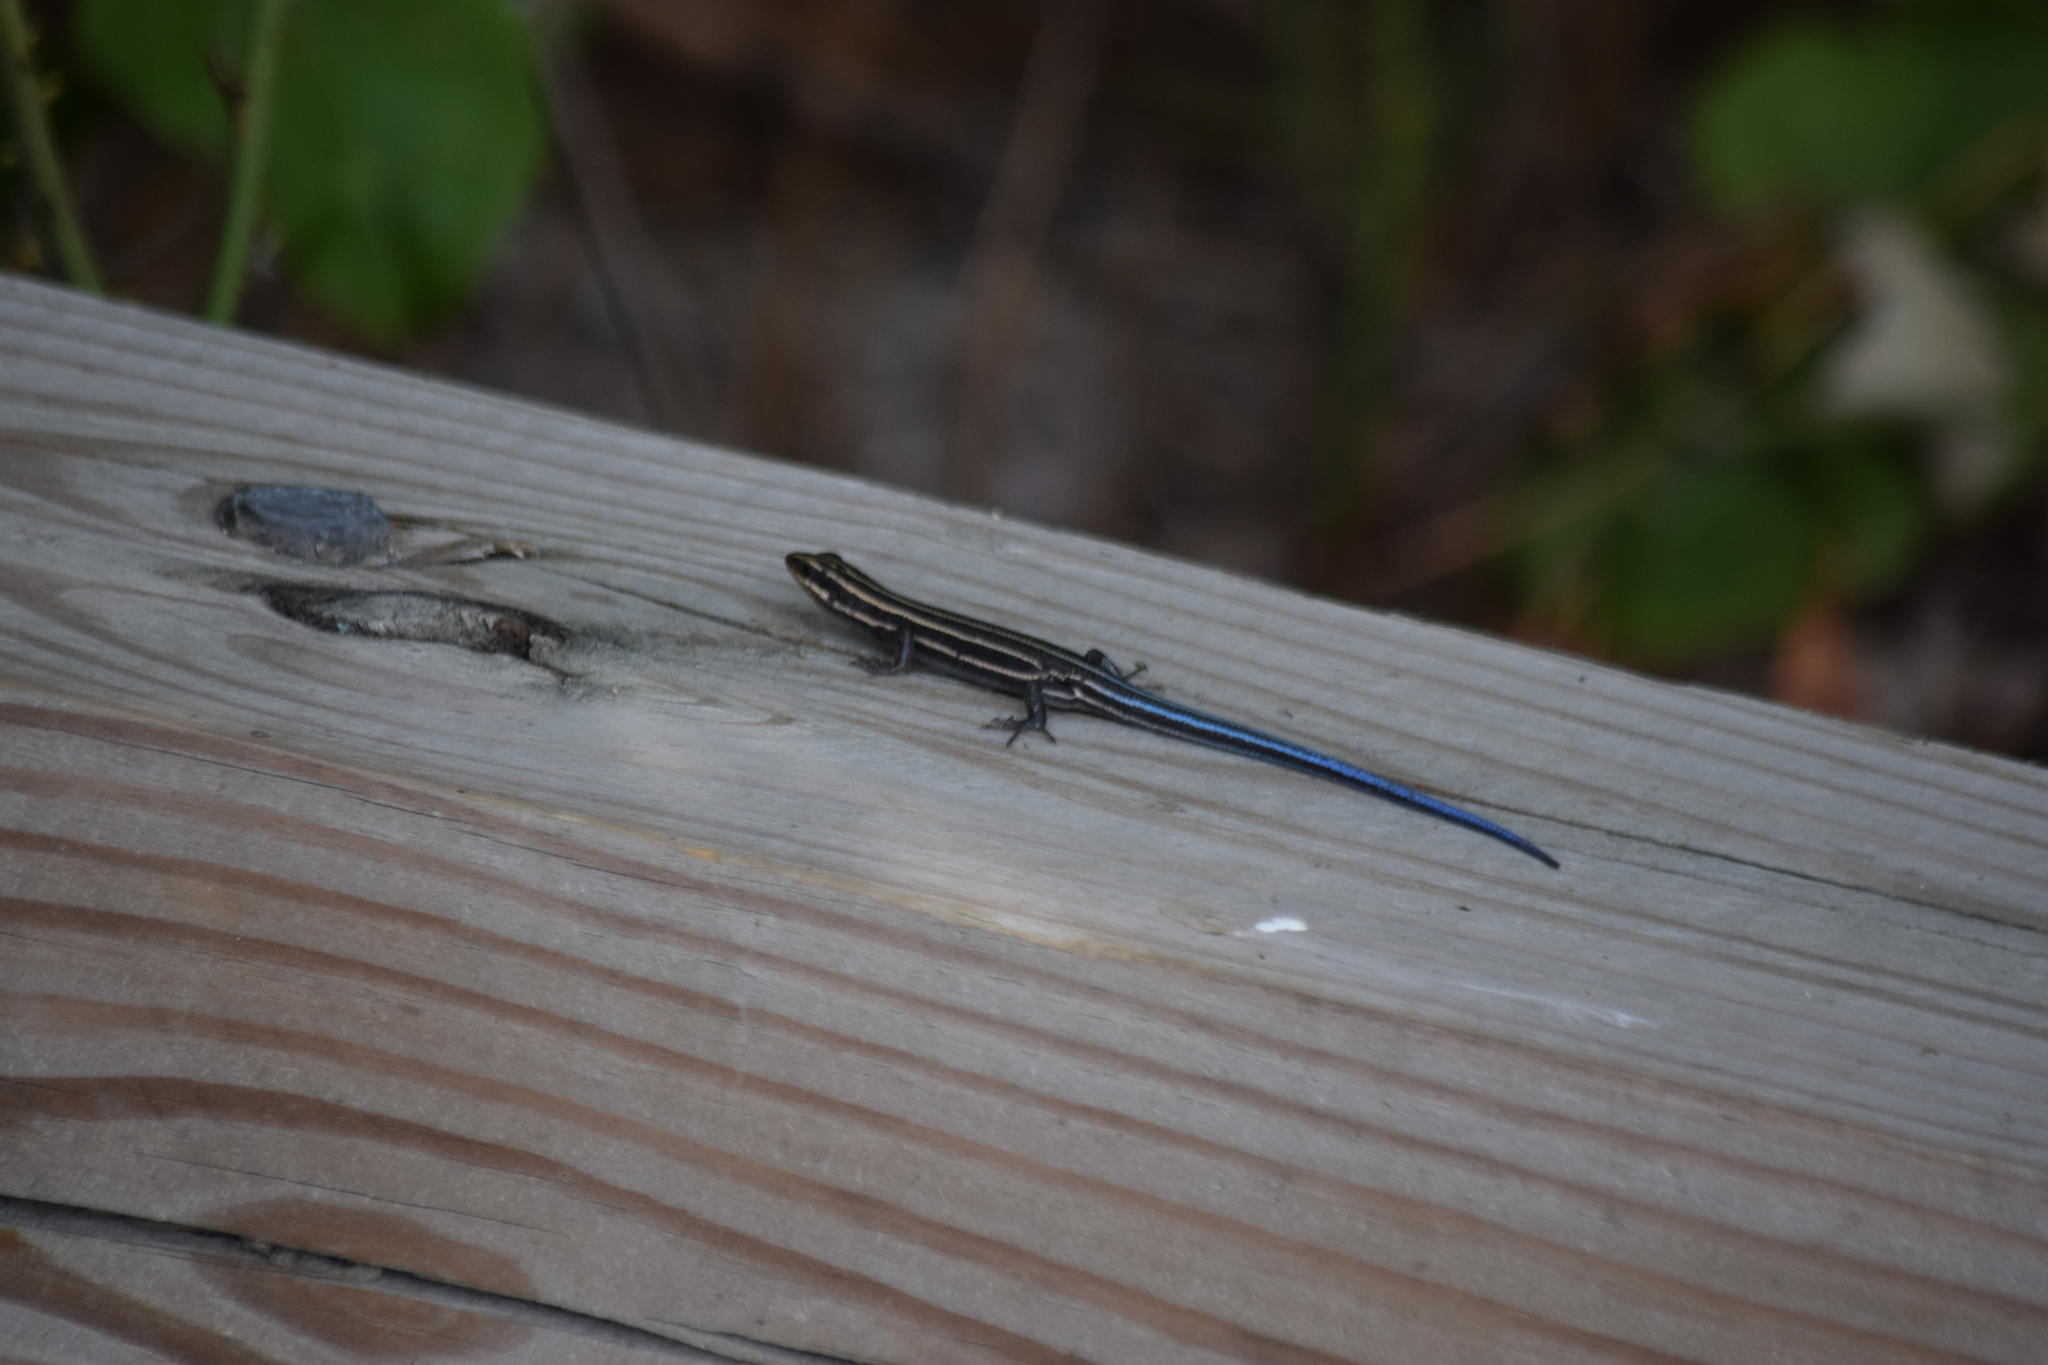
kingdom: Animalia
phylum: Chordata
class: Squamata
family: Scincidae
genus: Plestiodon
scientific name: Plestiodon fasciatus
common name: Five-lined skink
